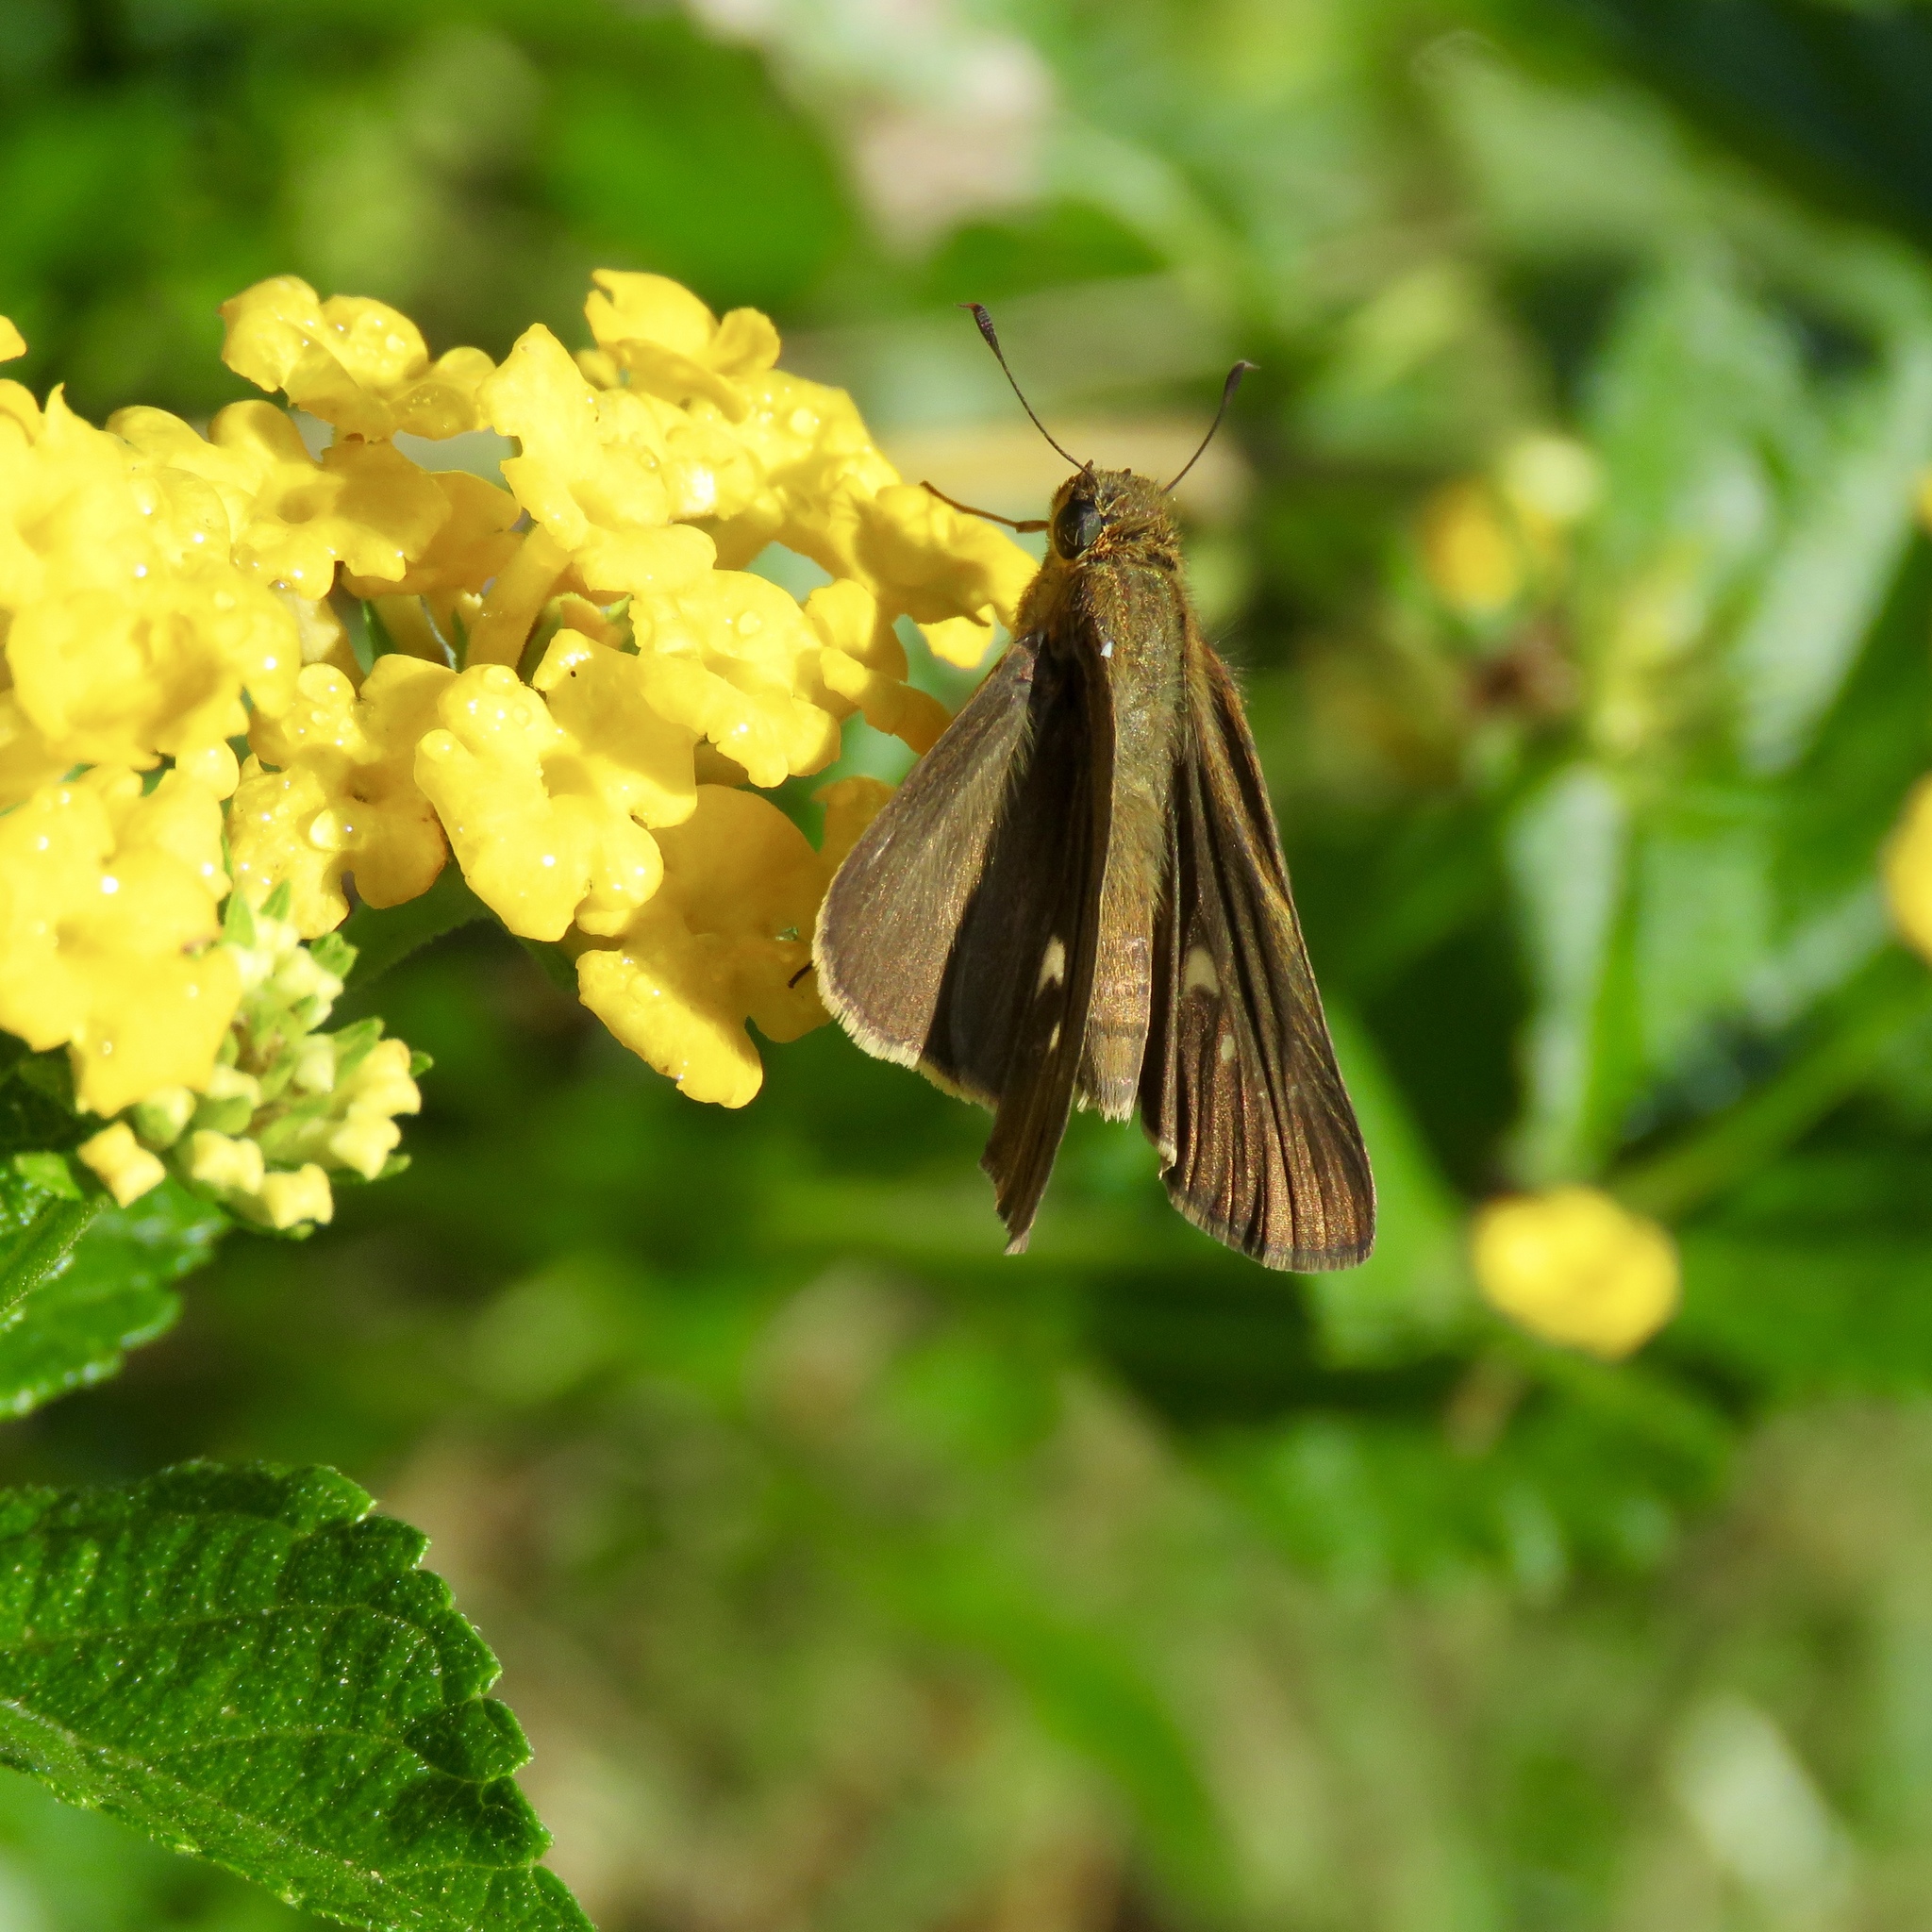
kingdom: Animalia
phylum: Arthropoda
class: Insecta
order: Lepidoptera
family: Hesperiidae
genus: Panoquina
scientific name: Panoquina ocola
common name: Ocola skipper
